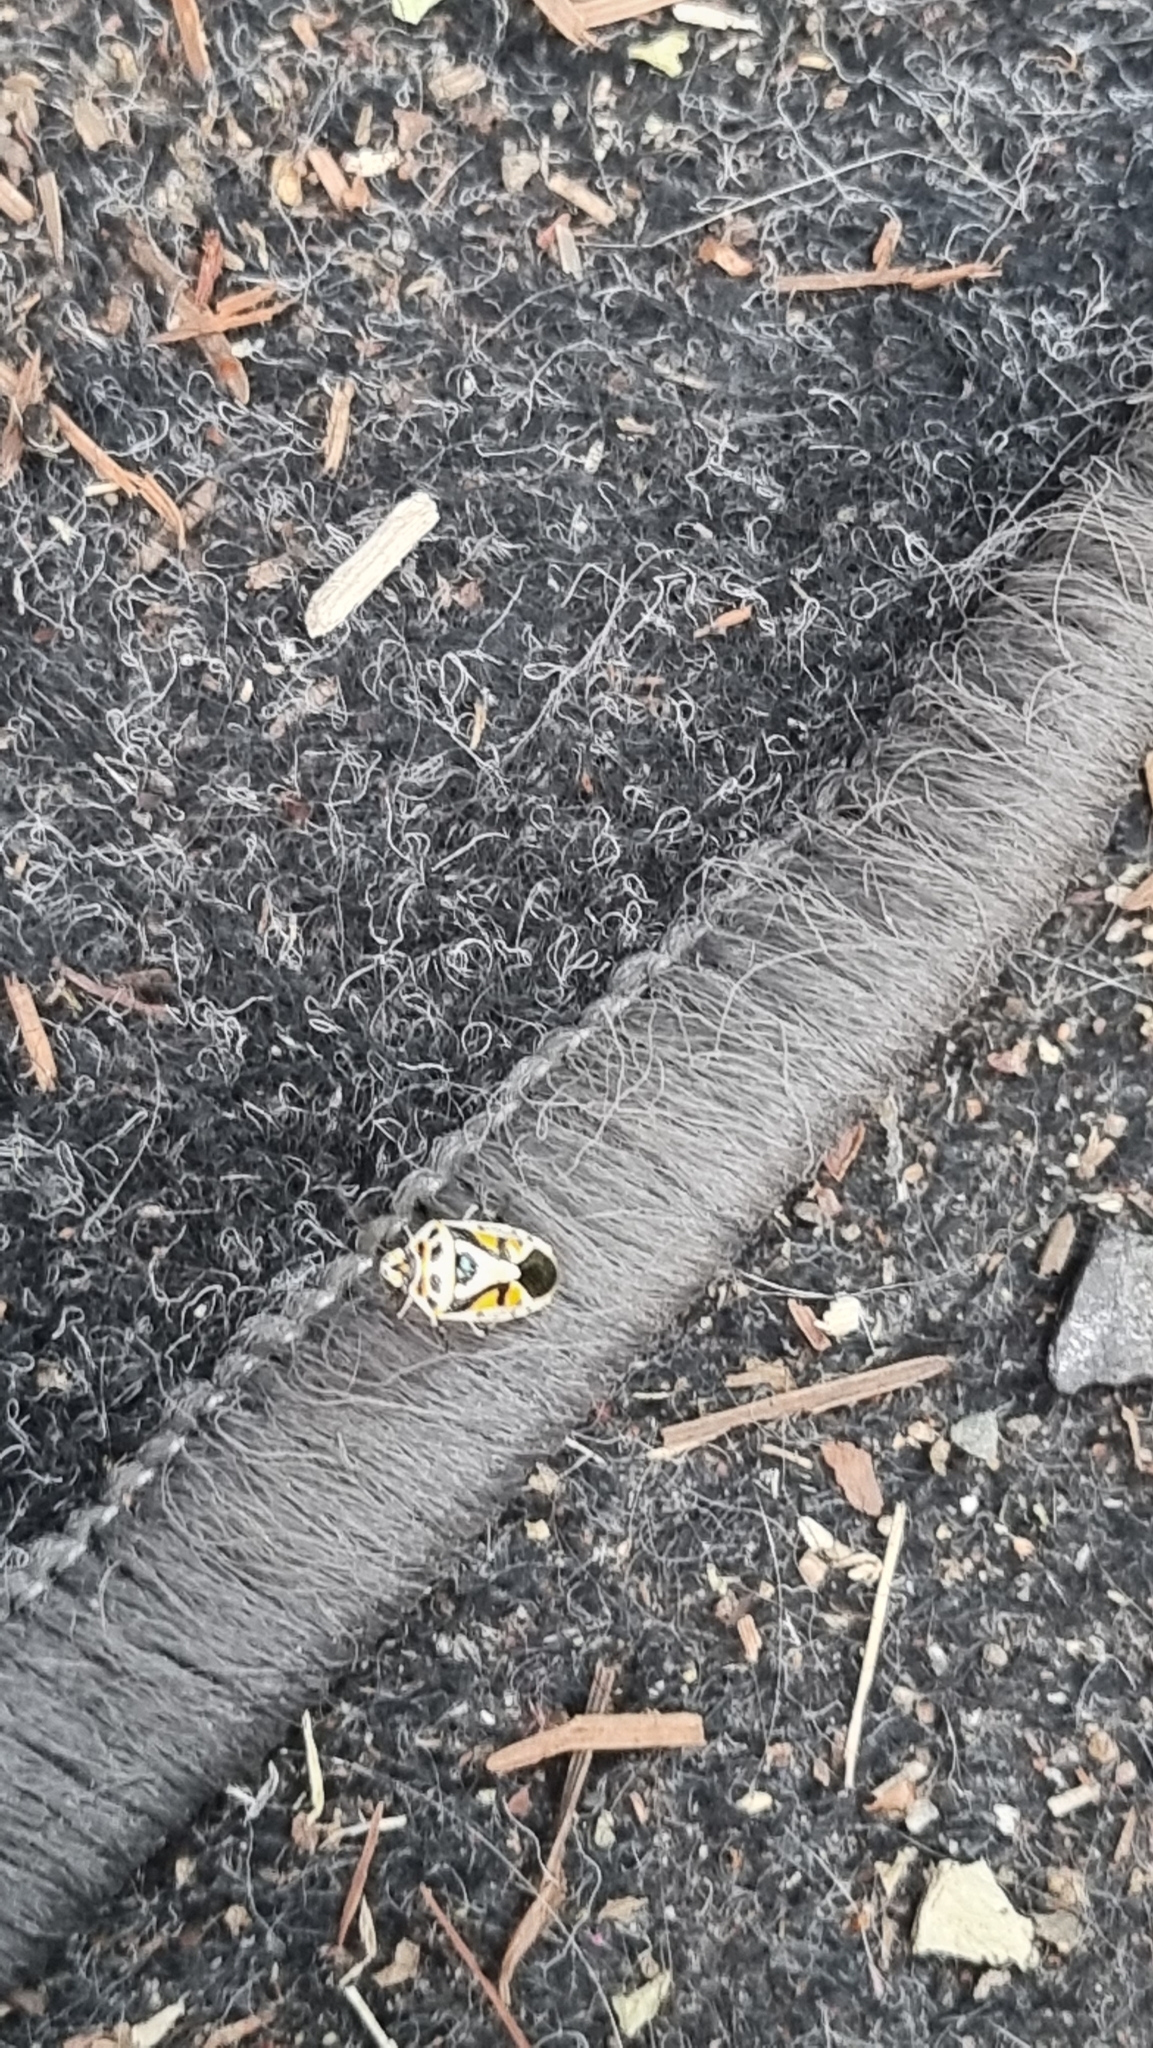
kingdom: Animalia
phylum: Arthropoda
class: Insecta
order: Hemiptera
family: Pentatomidae
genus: Eurydema
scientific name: Eurydema ornata
